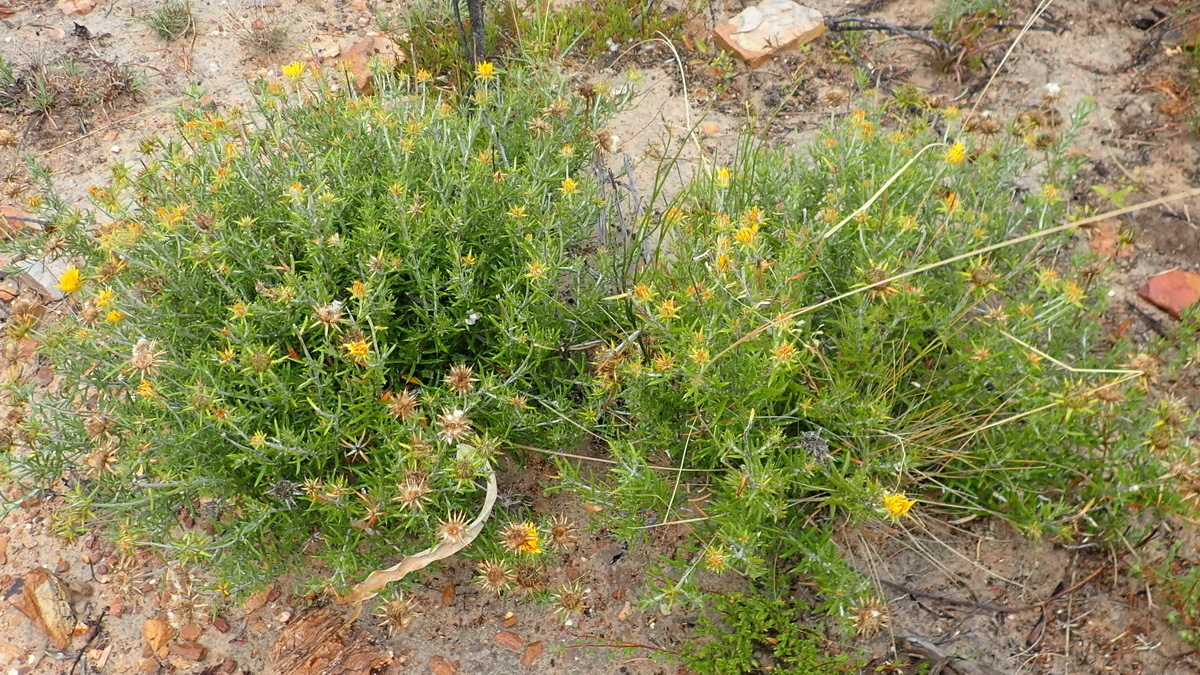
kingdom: Plantae
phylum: Tracheophyta
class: Magnoliopsida
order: Asterales
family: Asteraceae
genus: Berkheya
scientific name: Berkheya angustifolia
